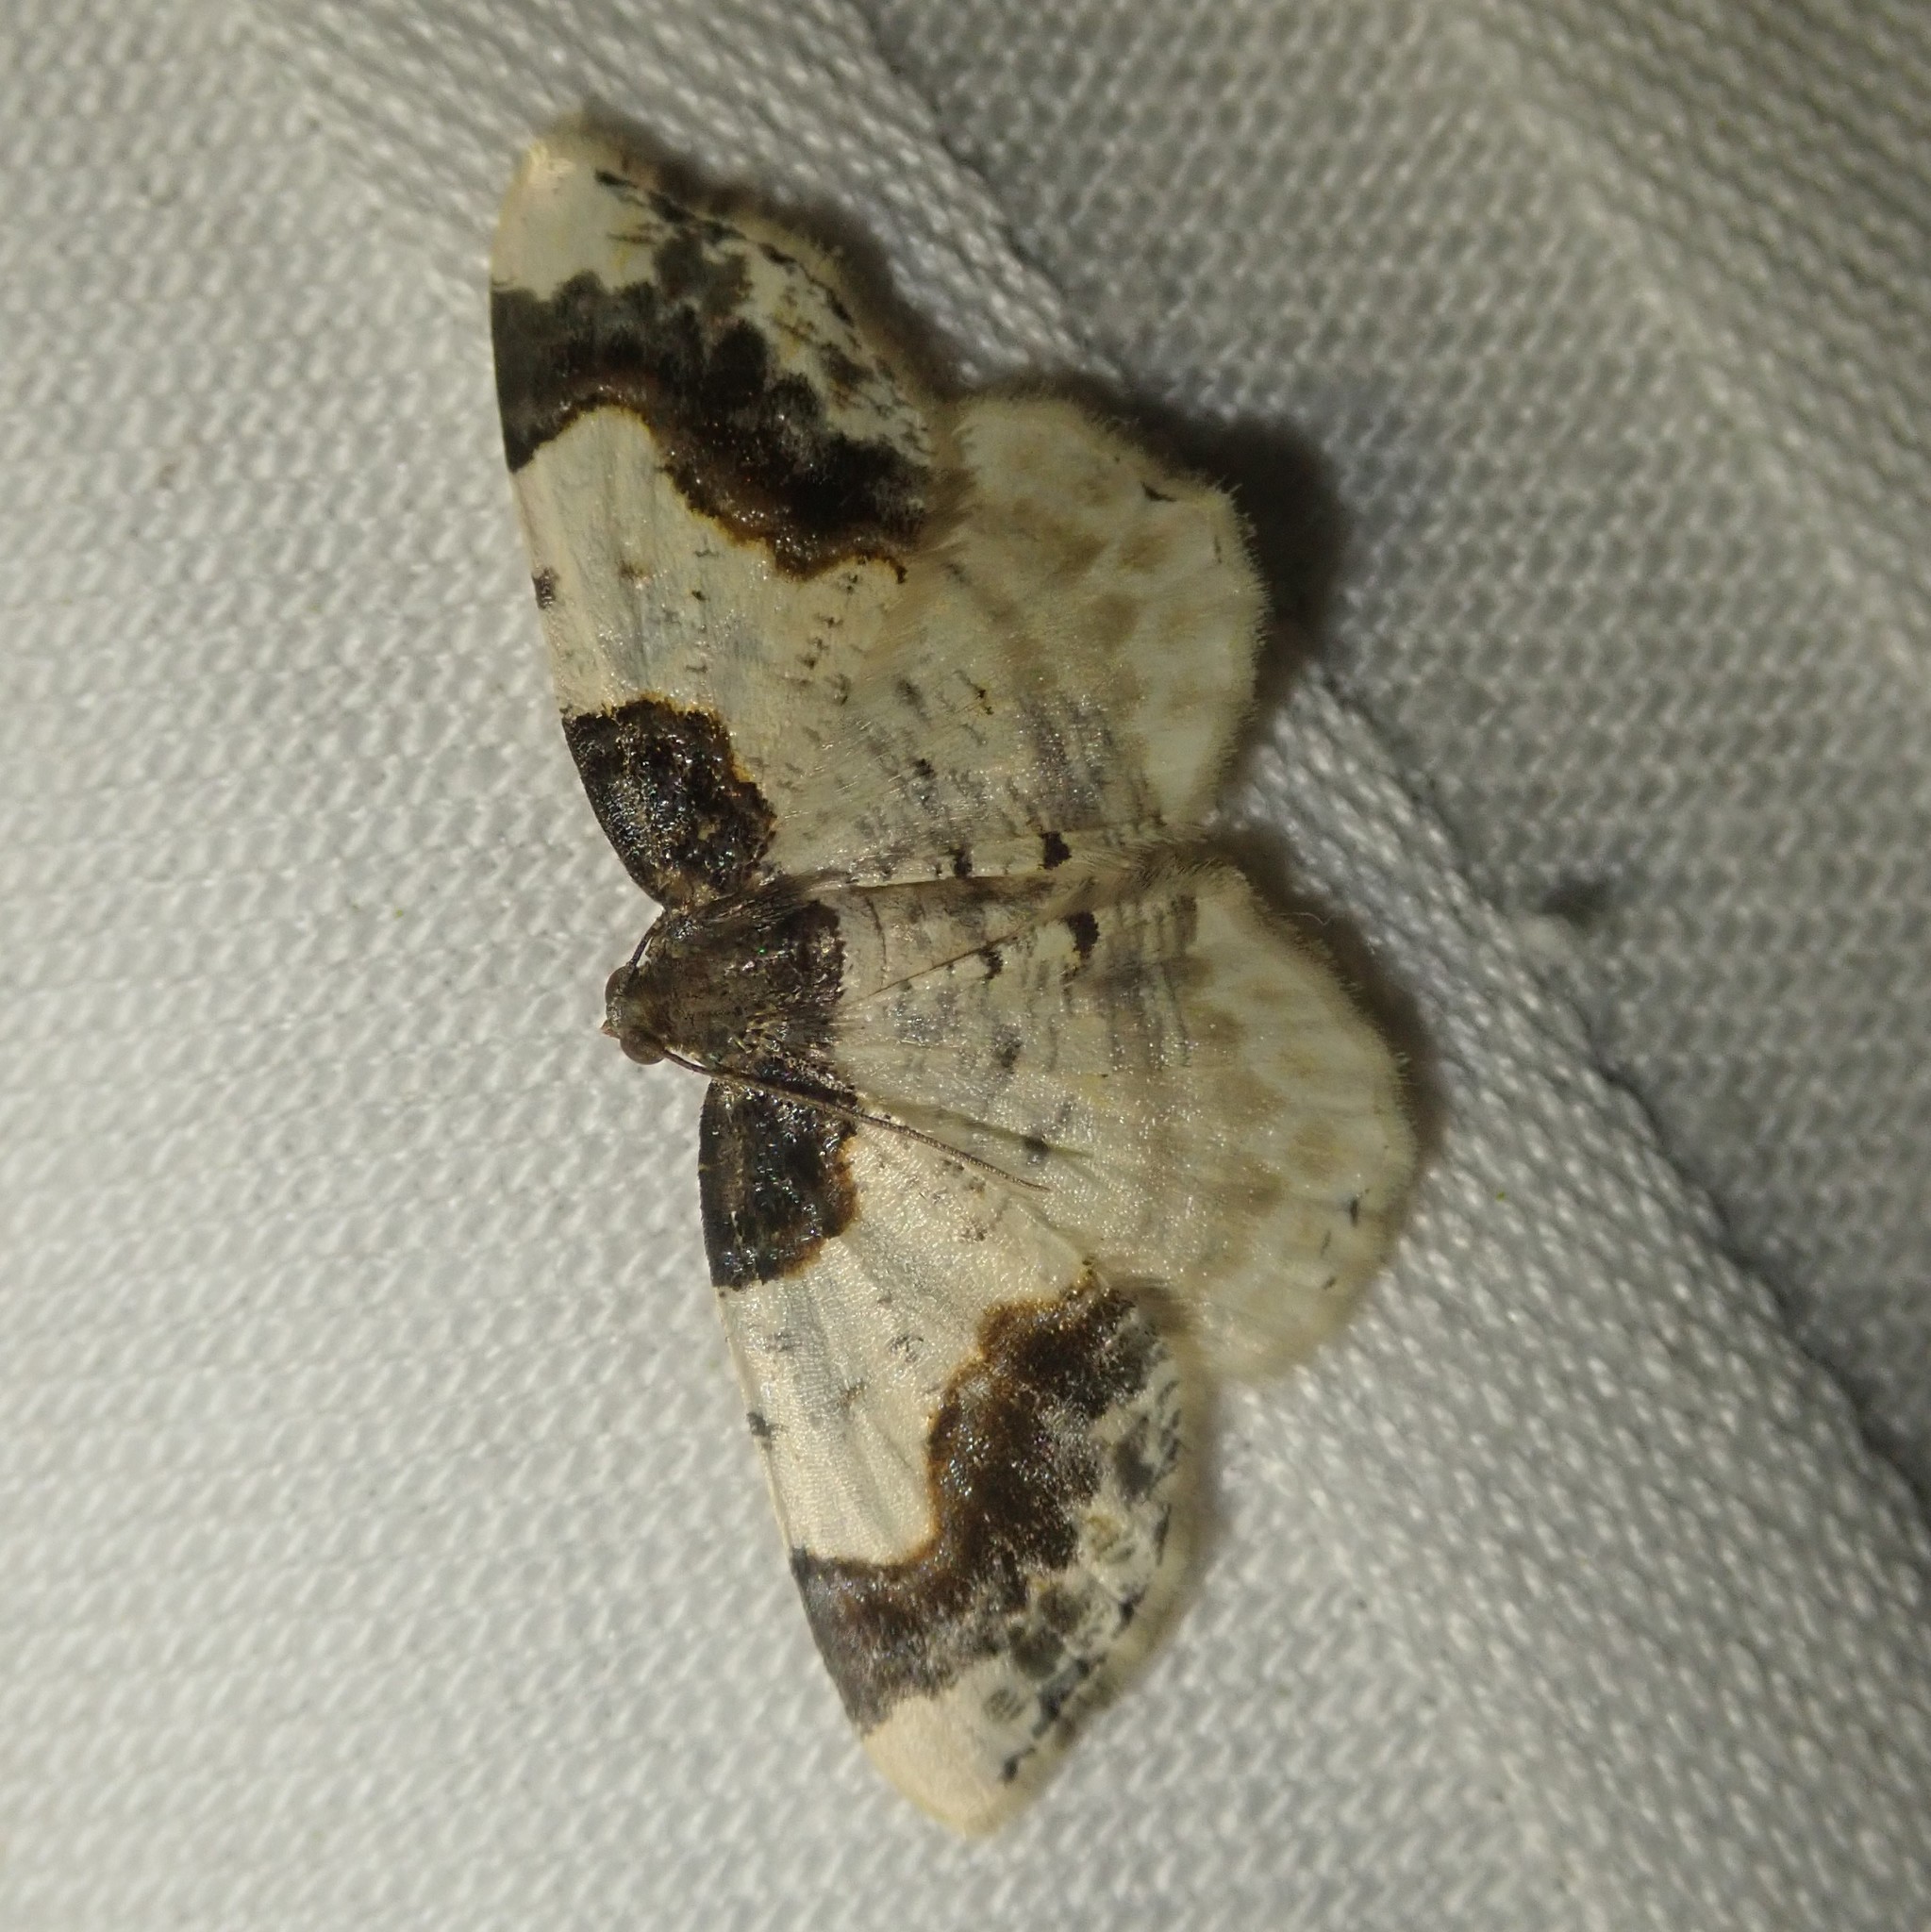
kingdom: Animalia
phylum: Arthropoda
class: Insecta
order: Lepidoptera
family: Geometridae
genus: Ligdia
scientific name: Ligdia adustata
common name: Scorched carpet
